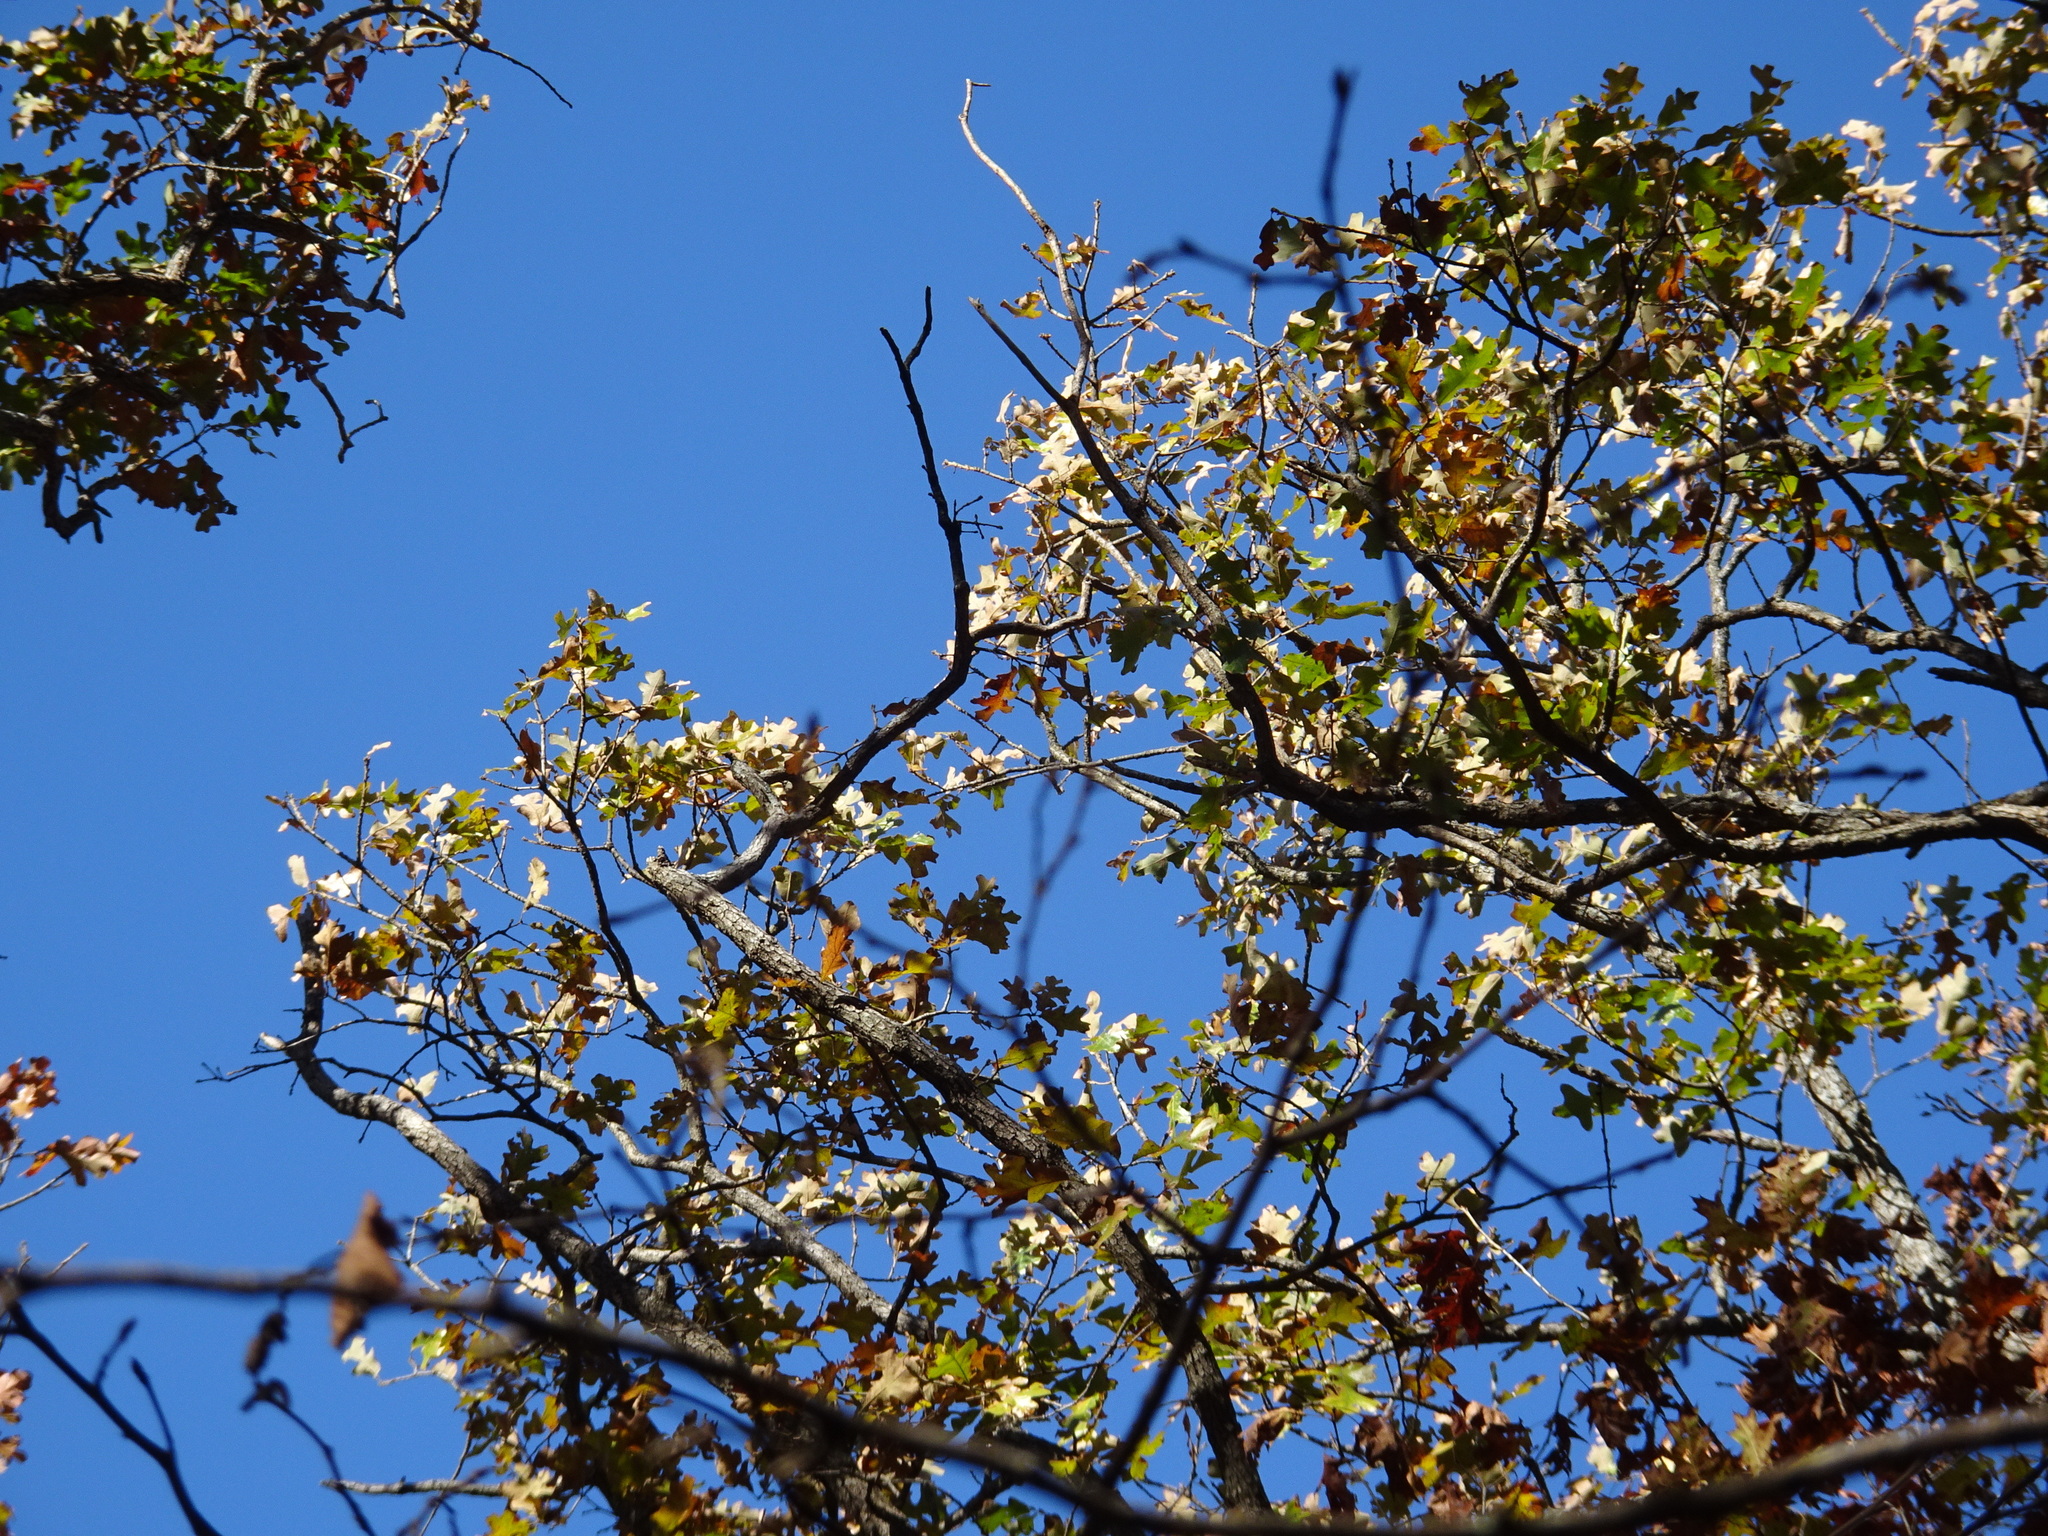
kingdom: Plantae
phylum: Tracheophyta
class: Magnoliopsida
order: Fagales
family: Fagaceae
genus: Quercus
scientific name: Quercus stellata
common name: Post oak
